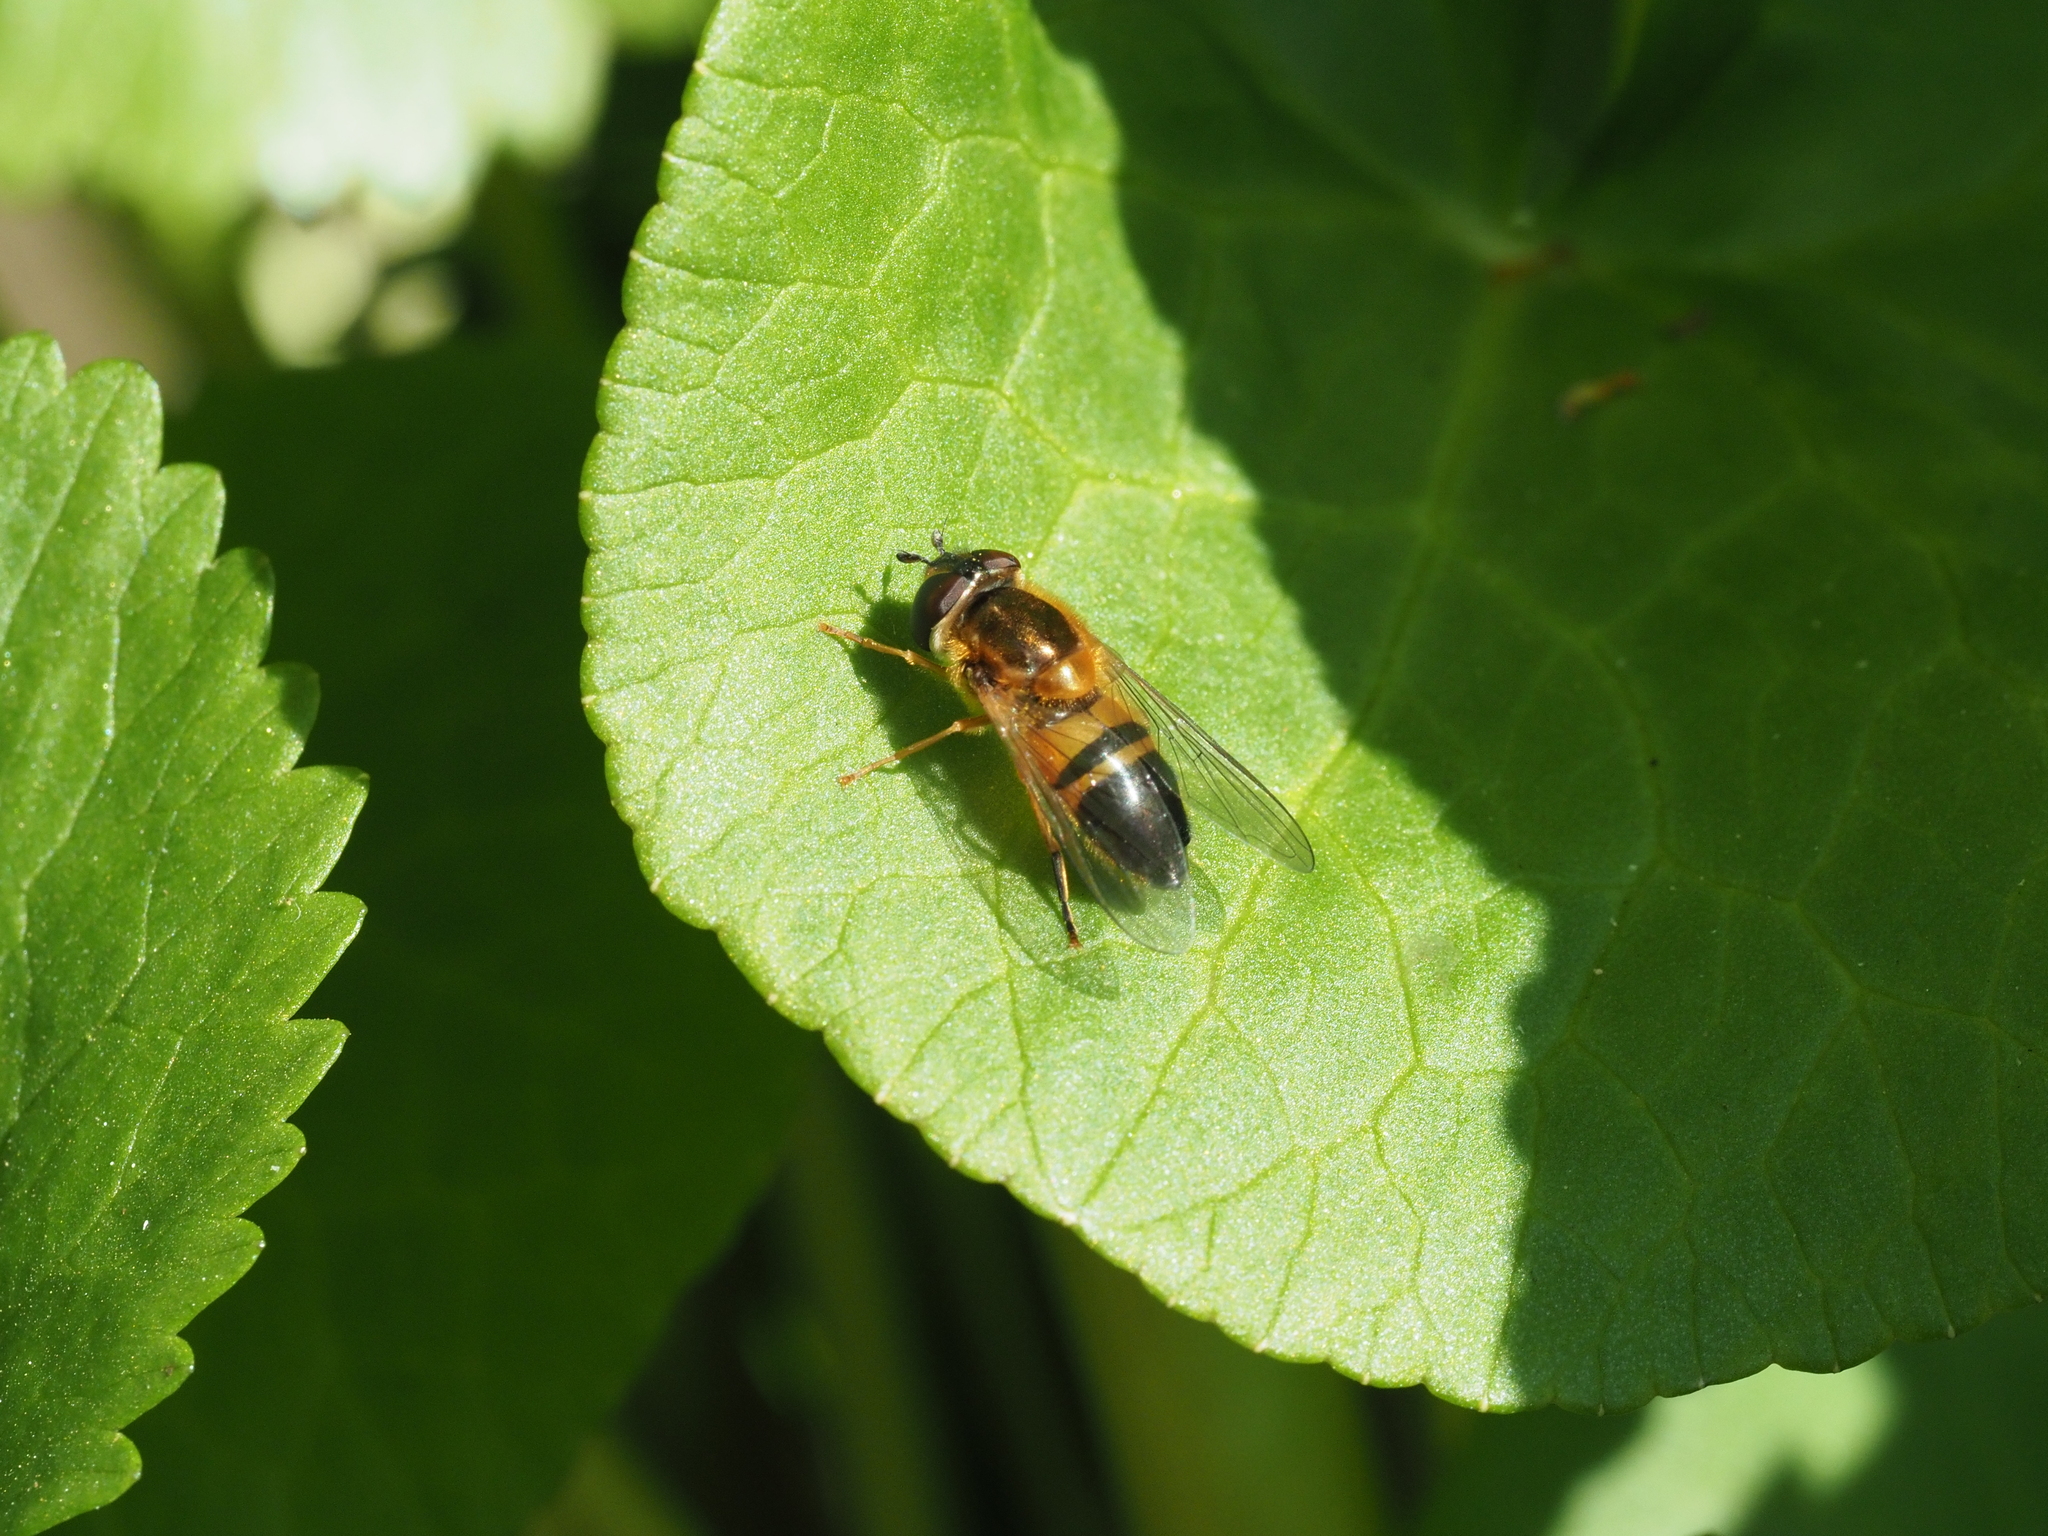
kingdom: Animalia
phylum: Arthropoda
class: Insecta
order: Diptera
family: Syrphidae
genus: Epistrophe
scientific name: Epistrophe eligans
